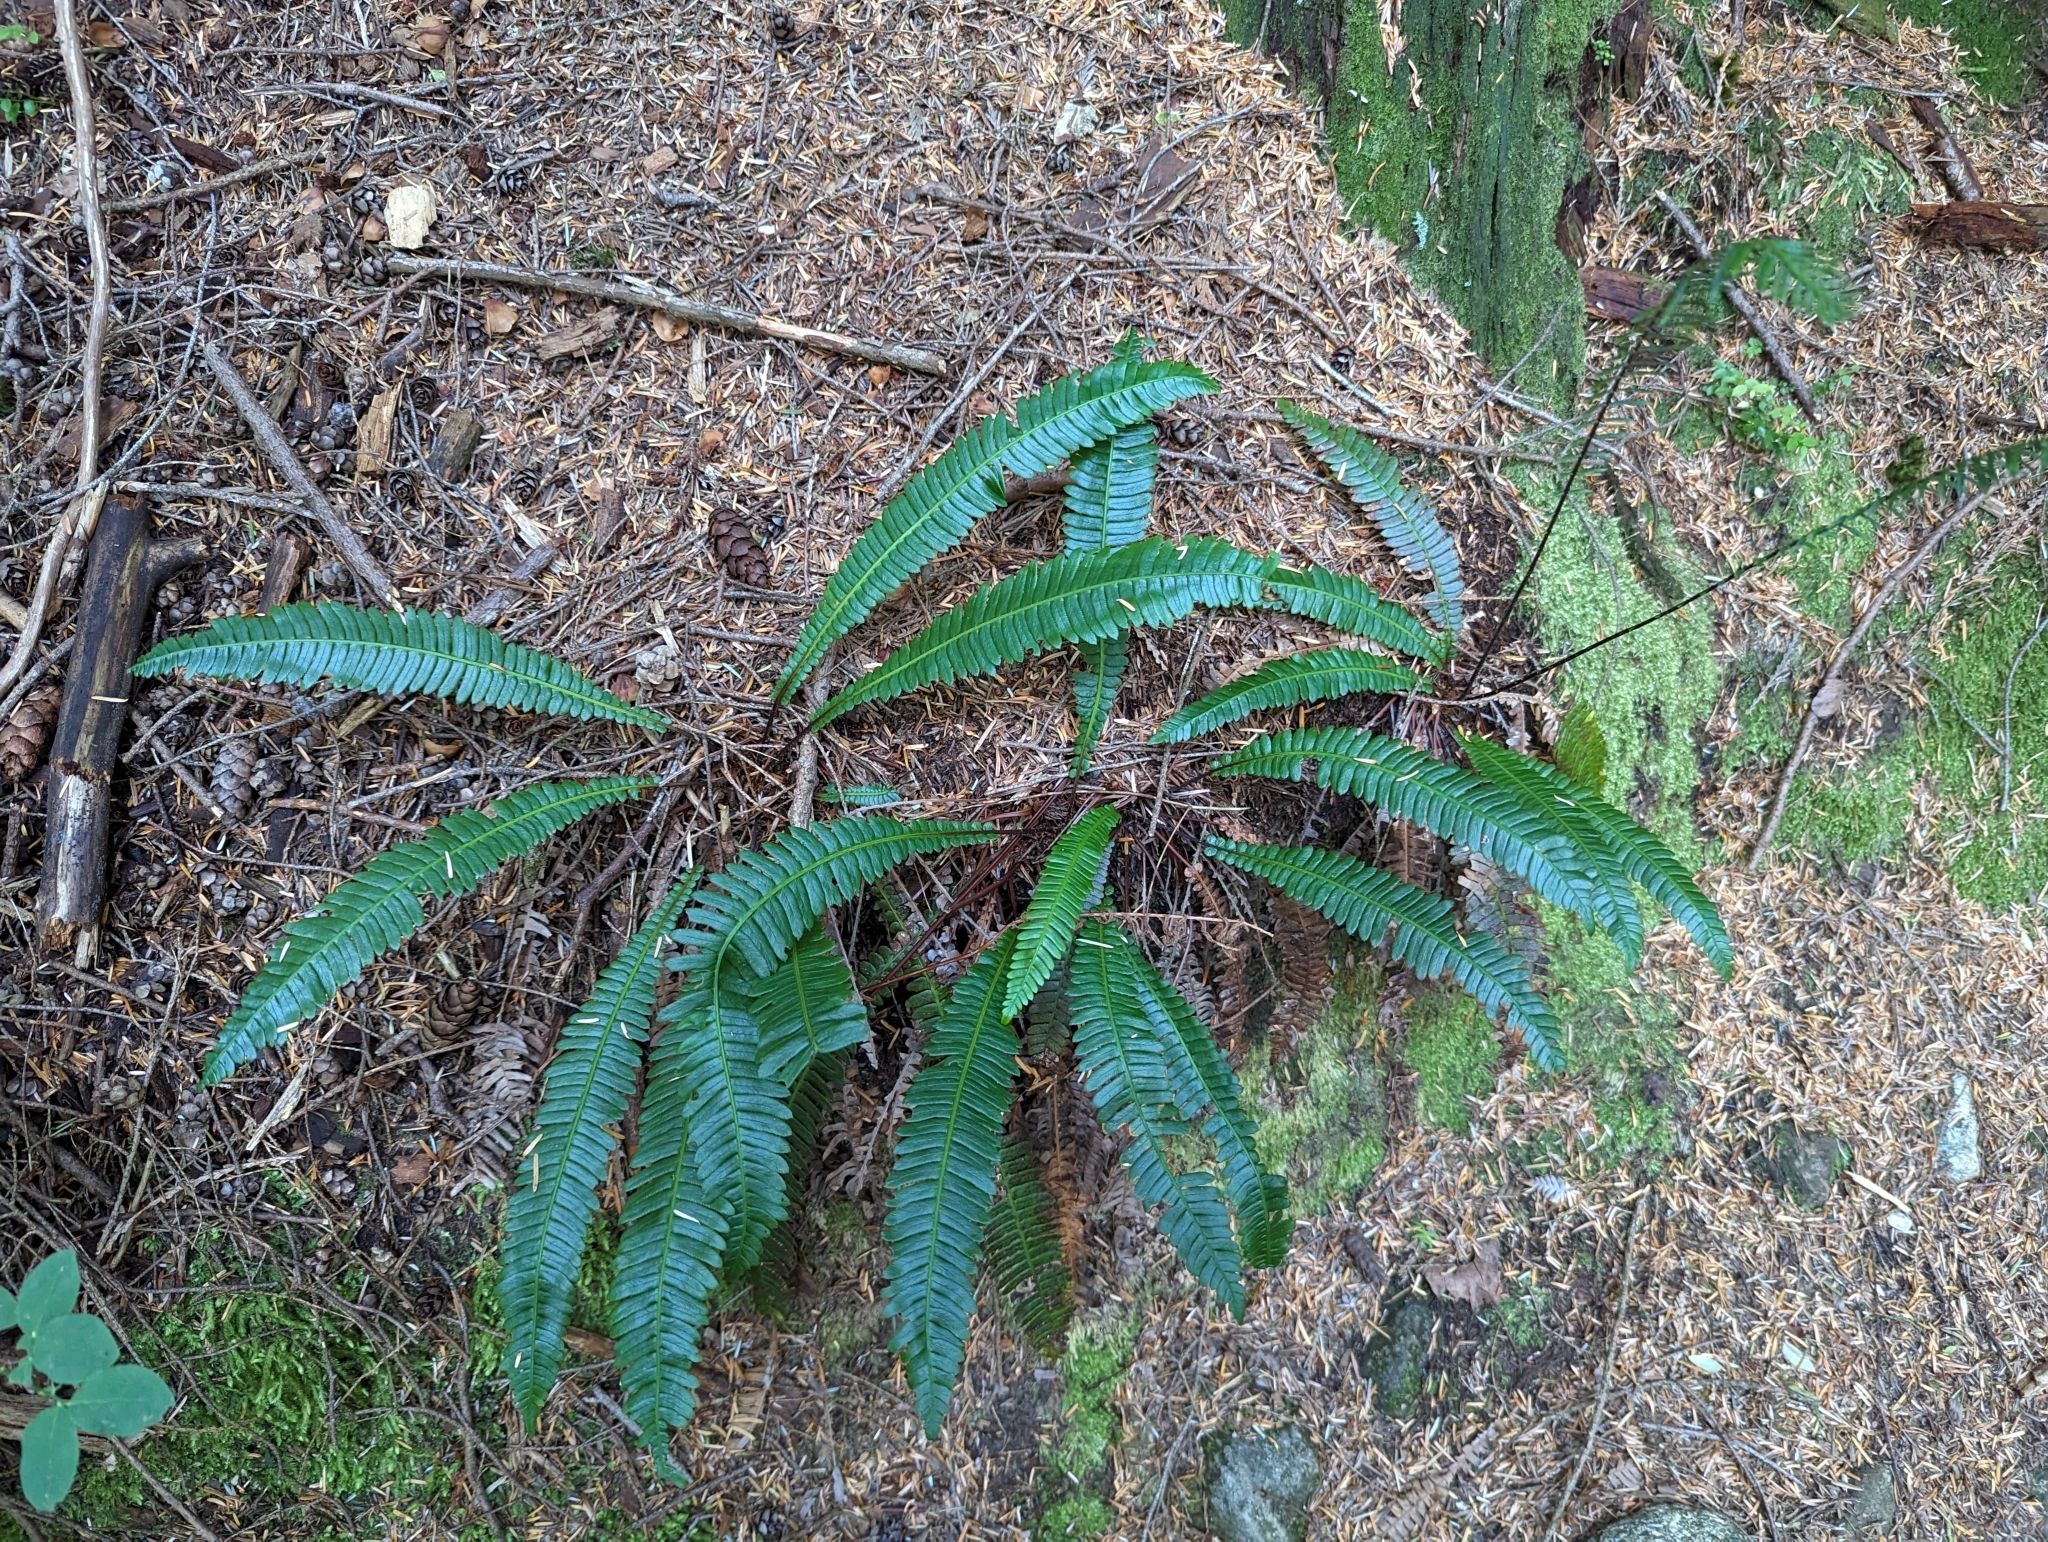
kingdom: Plantae
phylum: Tracheophyta
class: Polypodiopsida
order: Polypodiales
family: Blechnaceae
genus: Struthiopteris
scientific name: Struthiopteris spicant
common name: Deer fern
